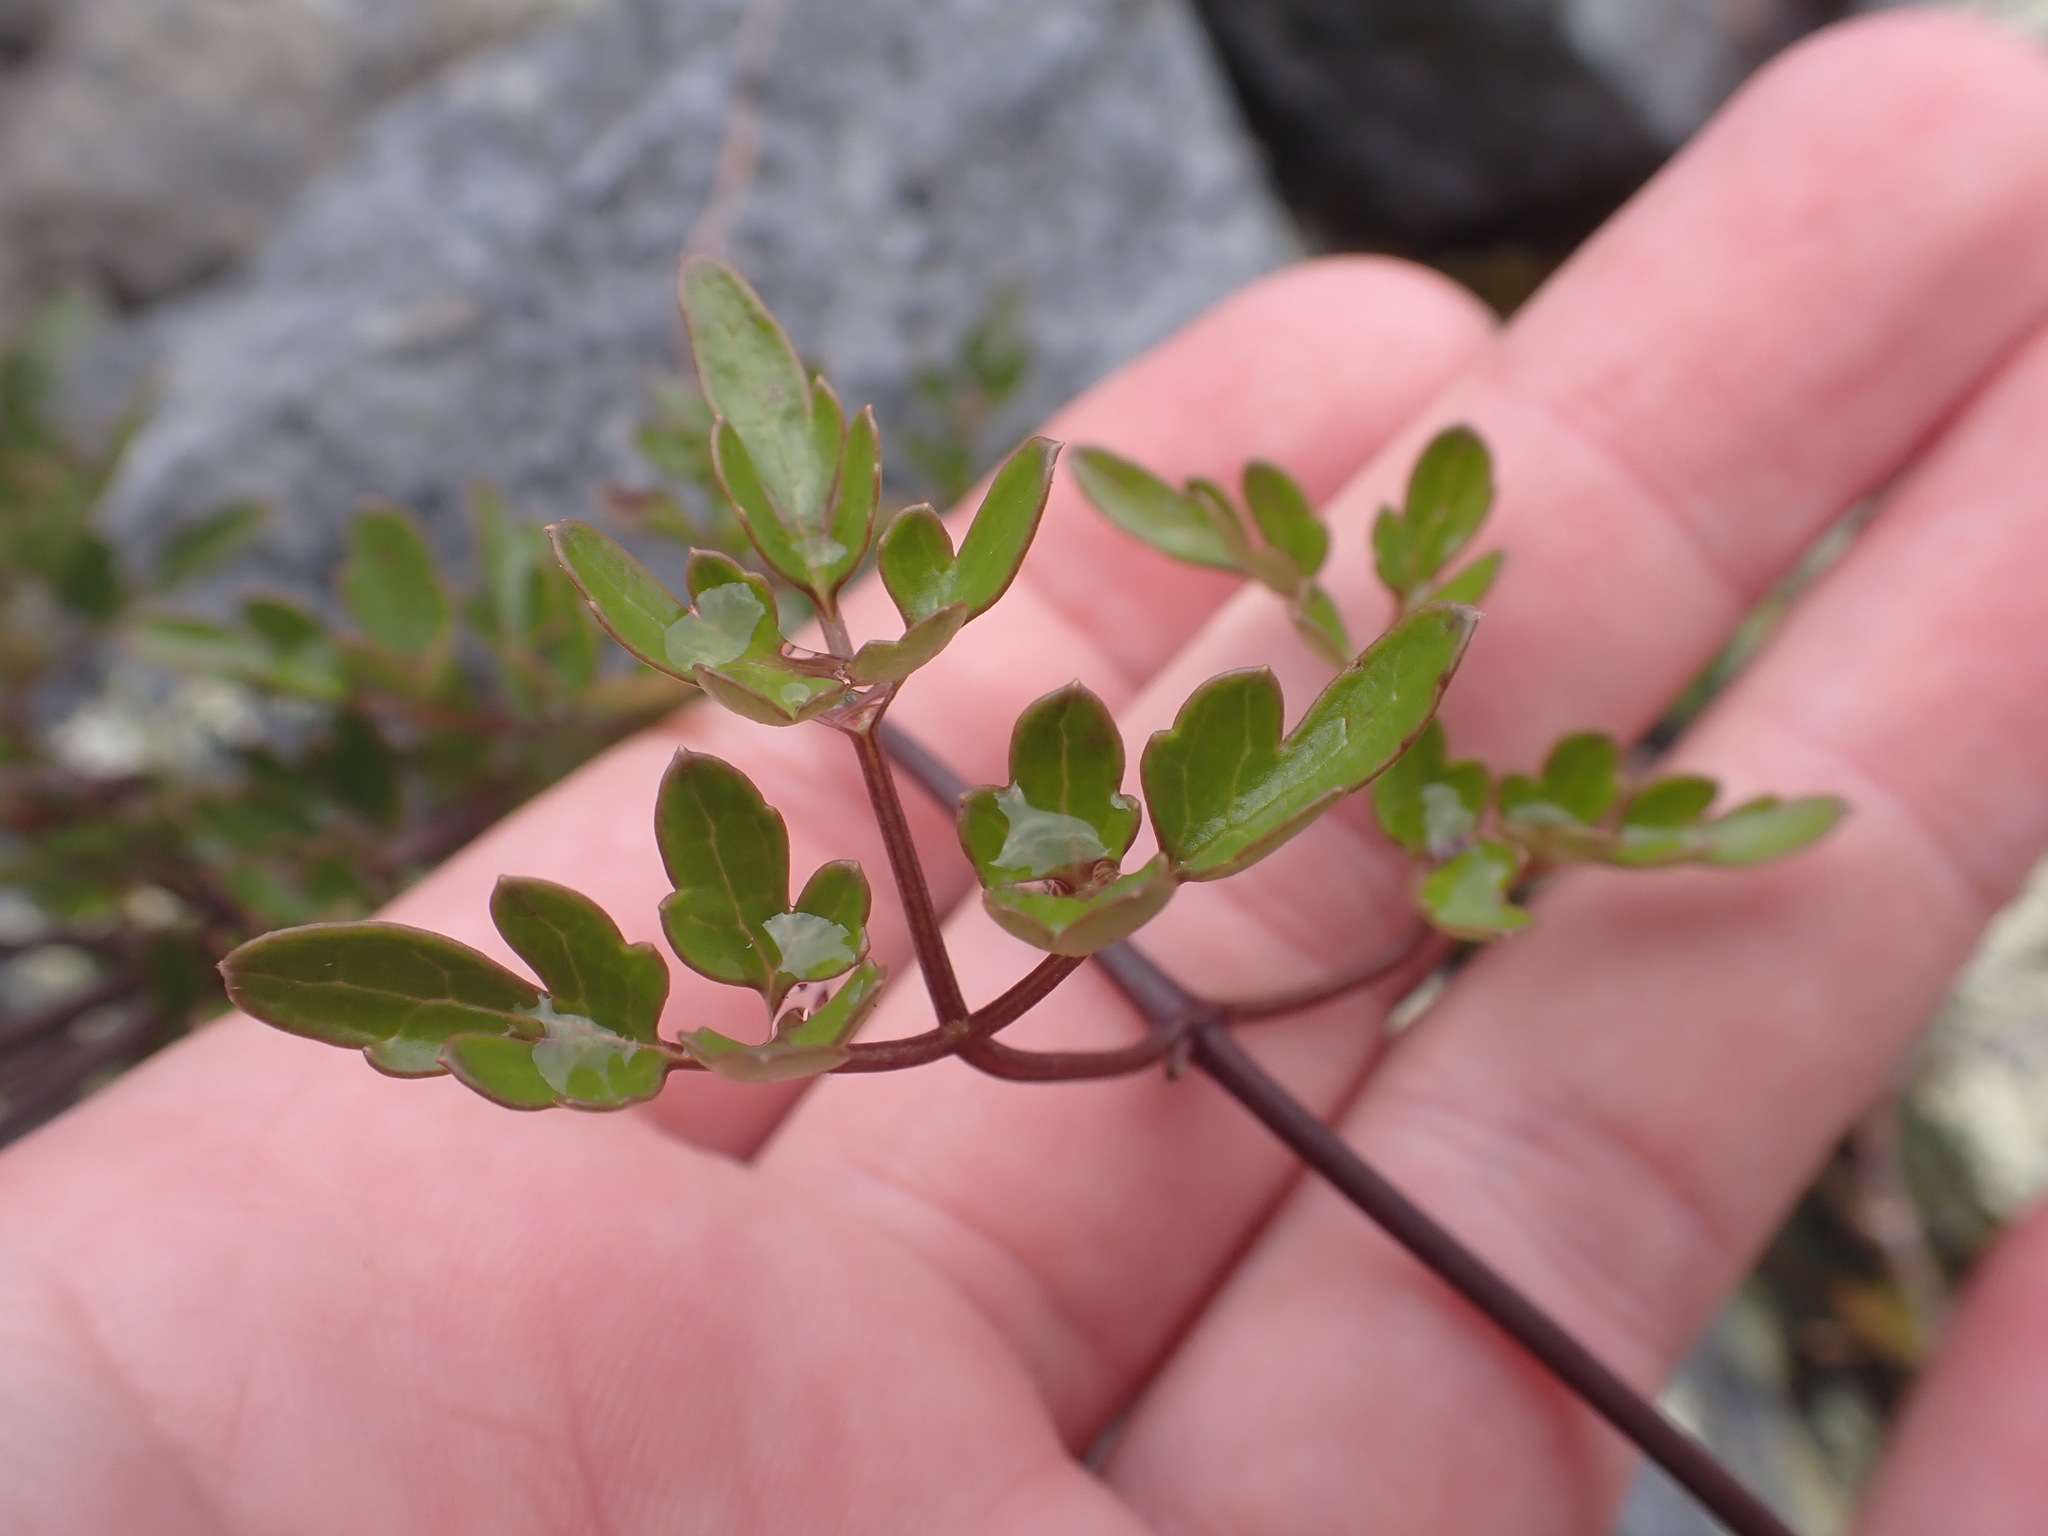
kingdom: Plantae
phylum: Tracheophyta
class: Magnoliopsida
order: Ranunculales
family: Ranunculaceae
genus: Clematis
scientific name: Clematis forsteri
